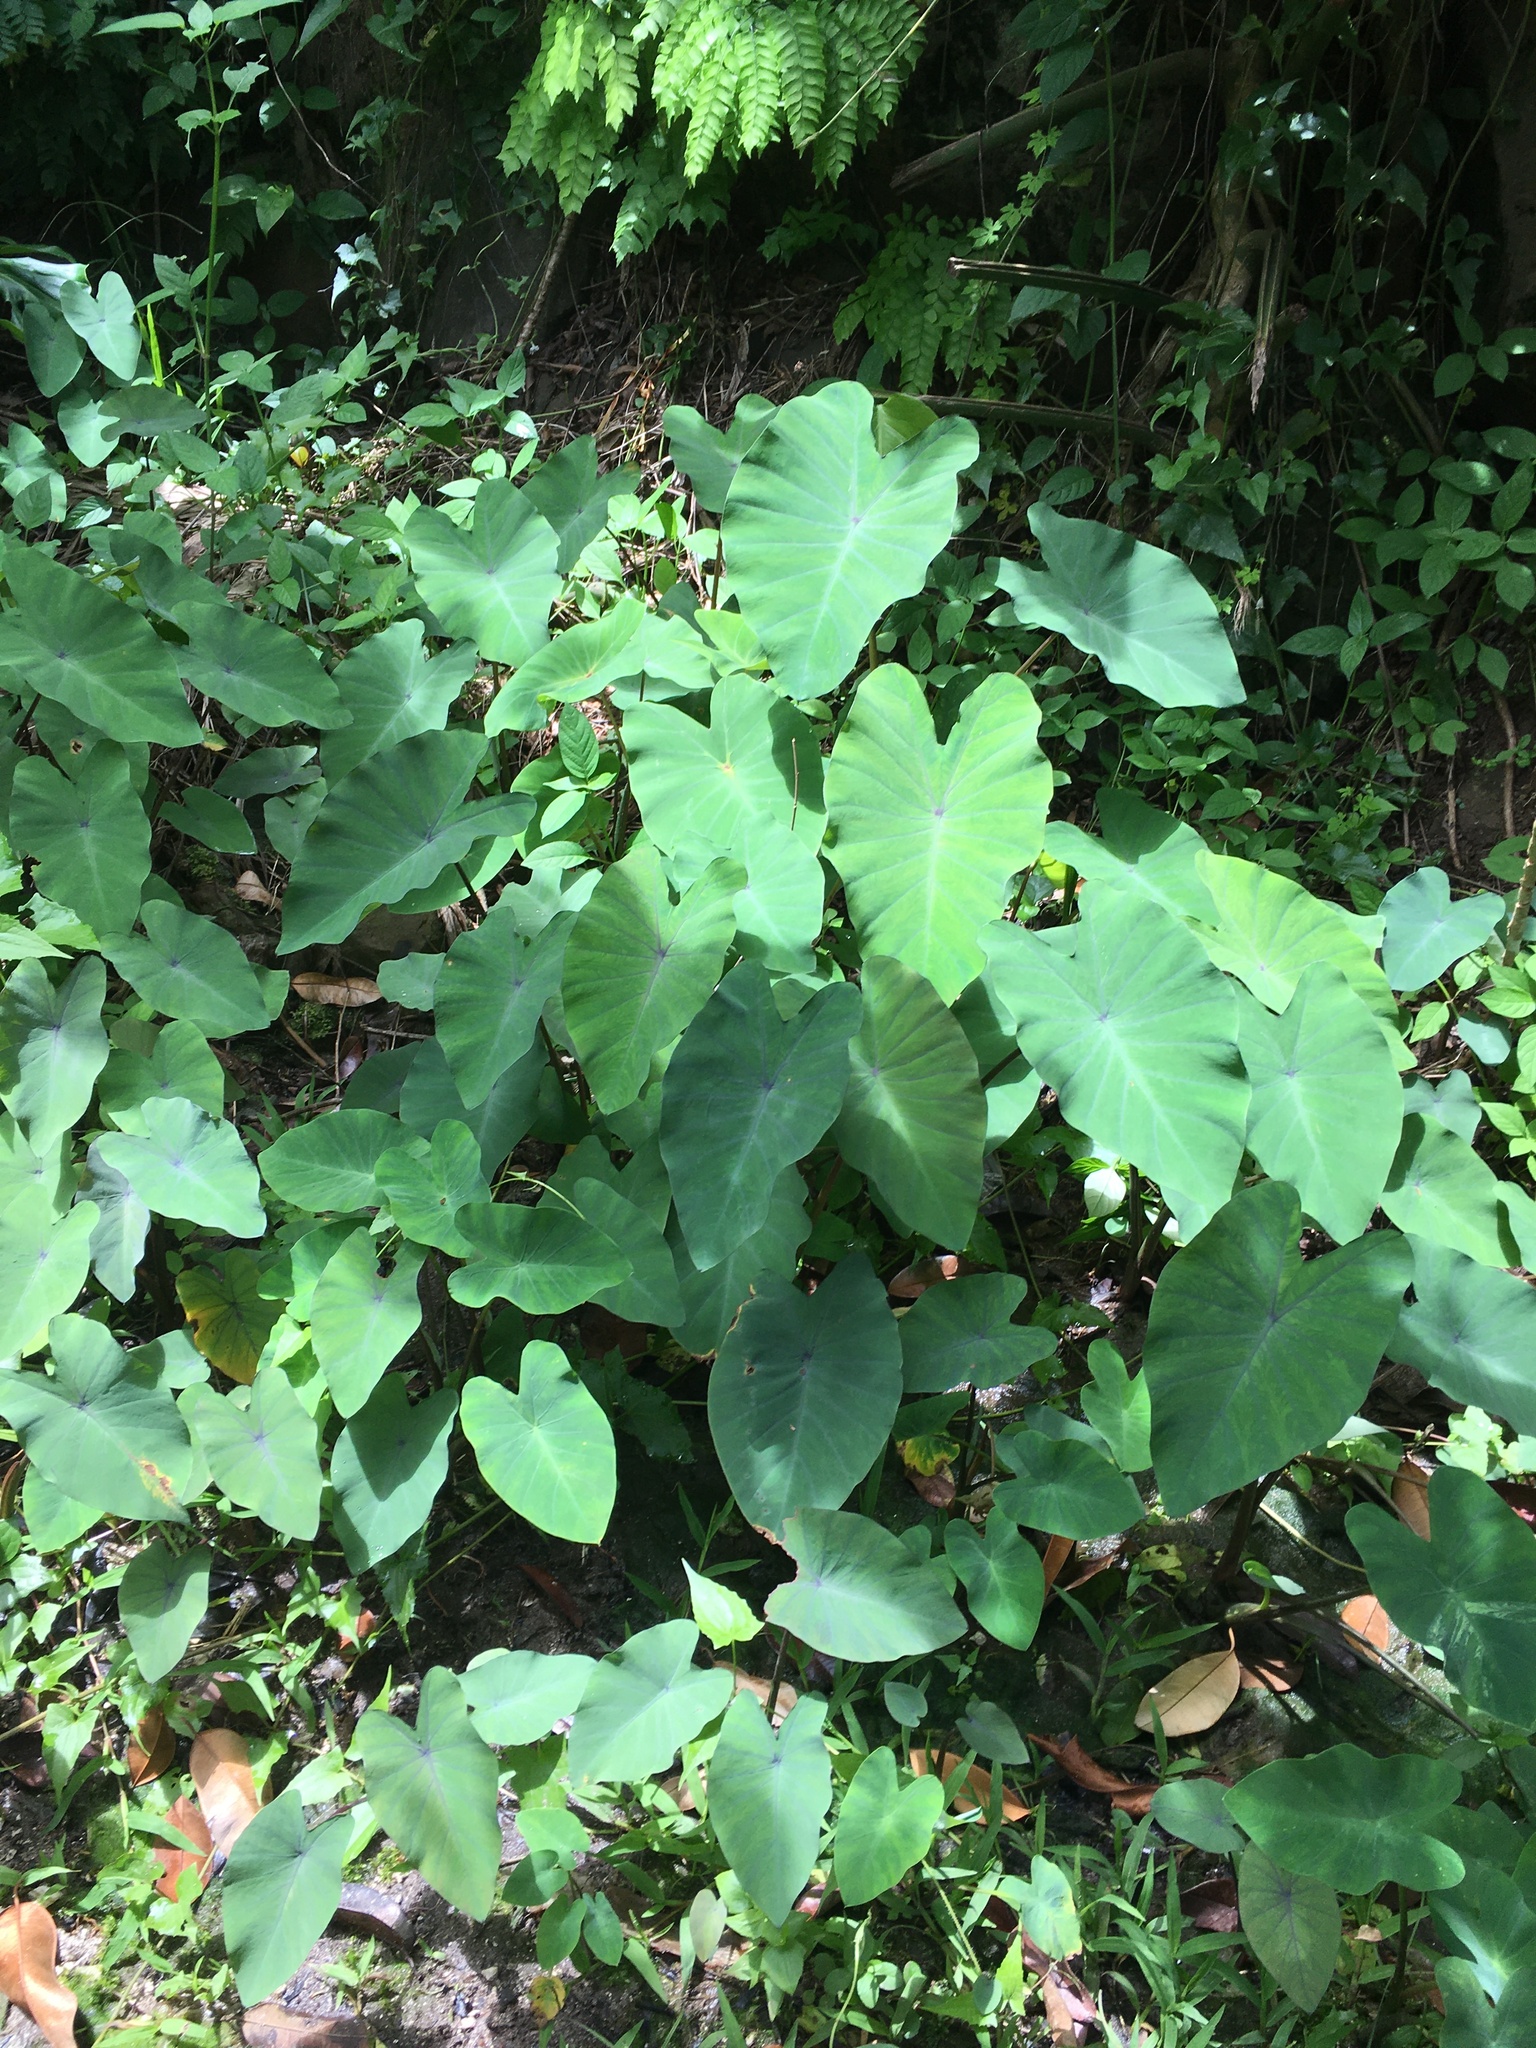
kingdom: Plantae
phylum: Tracheophyta
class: Liliopsida
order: Alismatales
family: Araceae
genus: Colocasia
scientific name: Colocasia esculenta
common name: Taro
